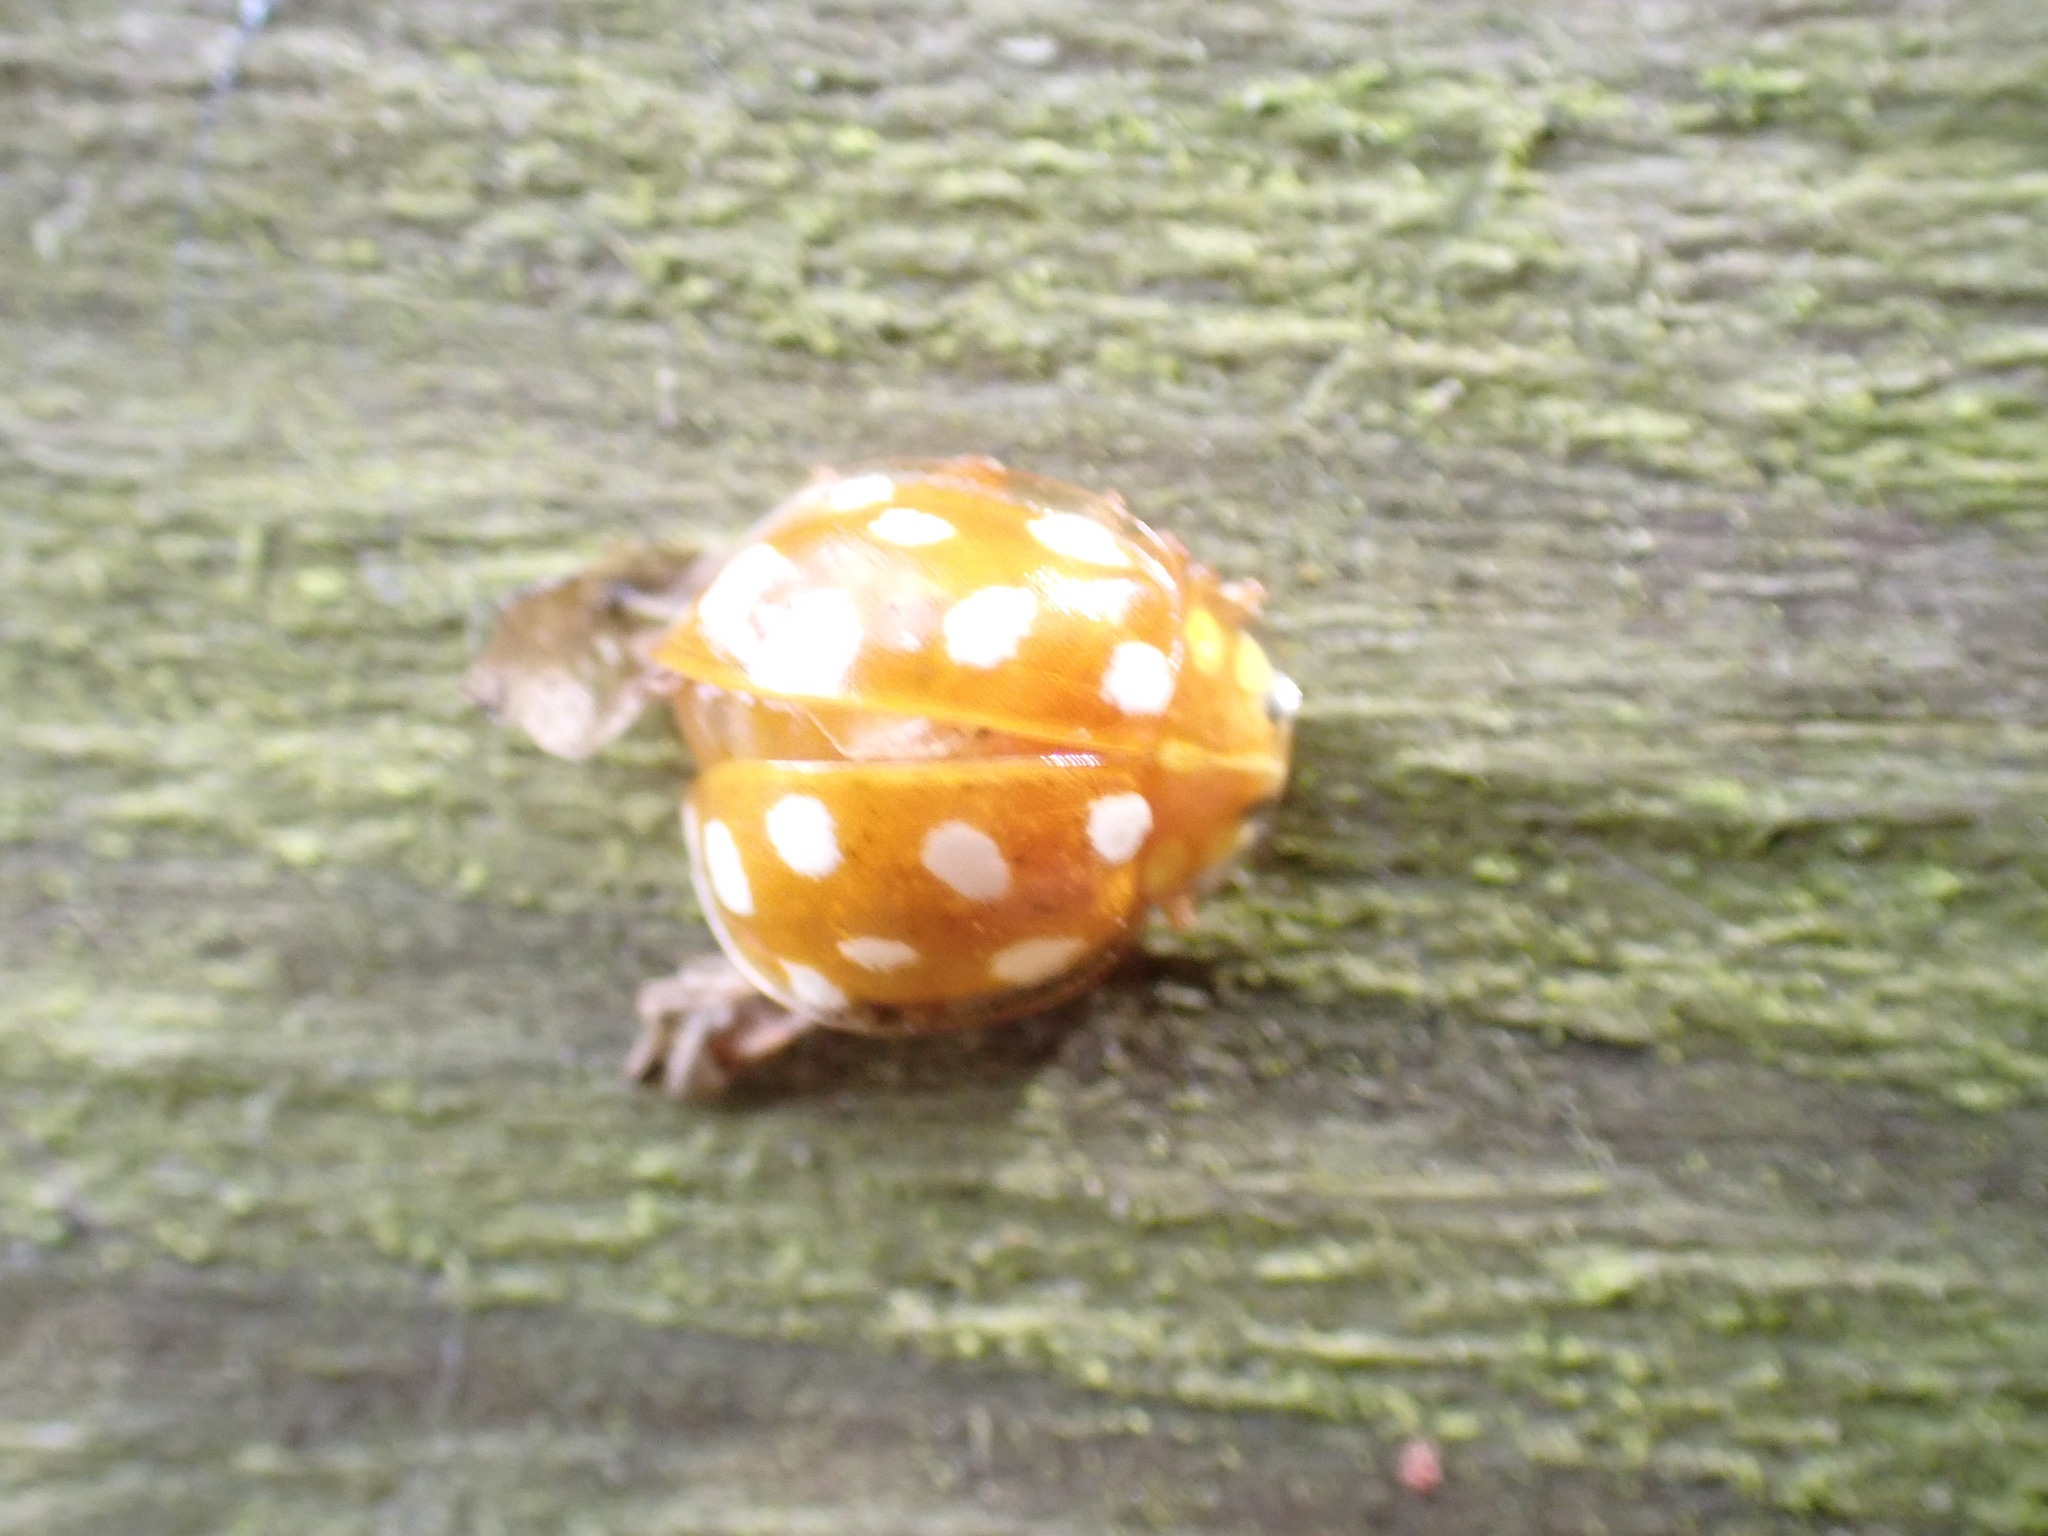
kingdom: Animalia
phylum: Arthropoda
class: Insecta
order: Coleoptera
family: Coccinellidae
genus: Halyzia
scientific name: Halyzia sedecimguttata
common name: Orange ladybird
